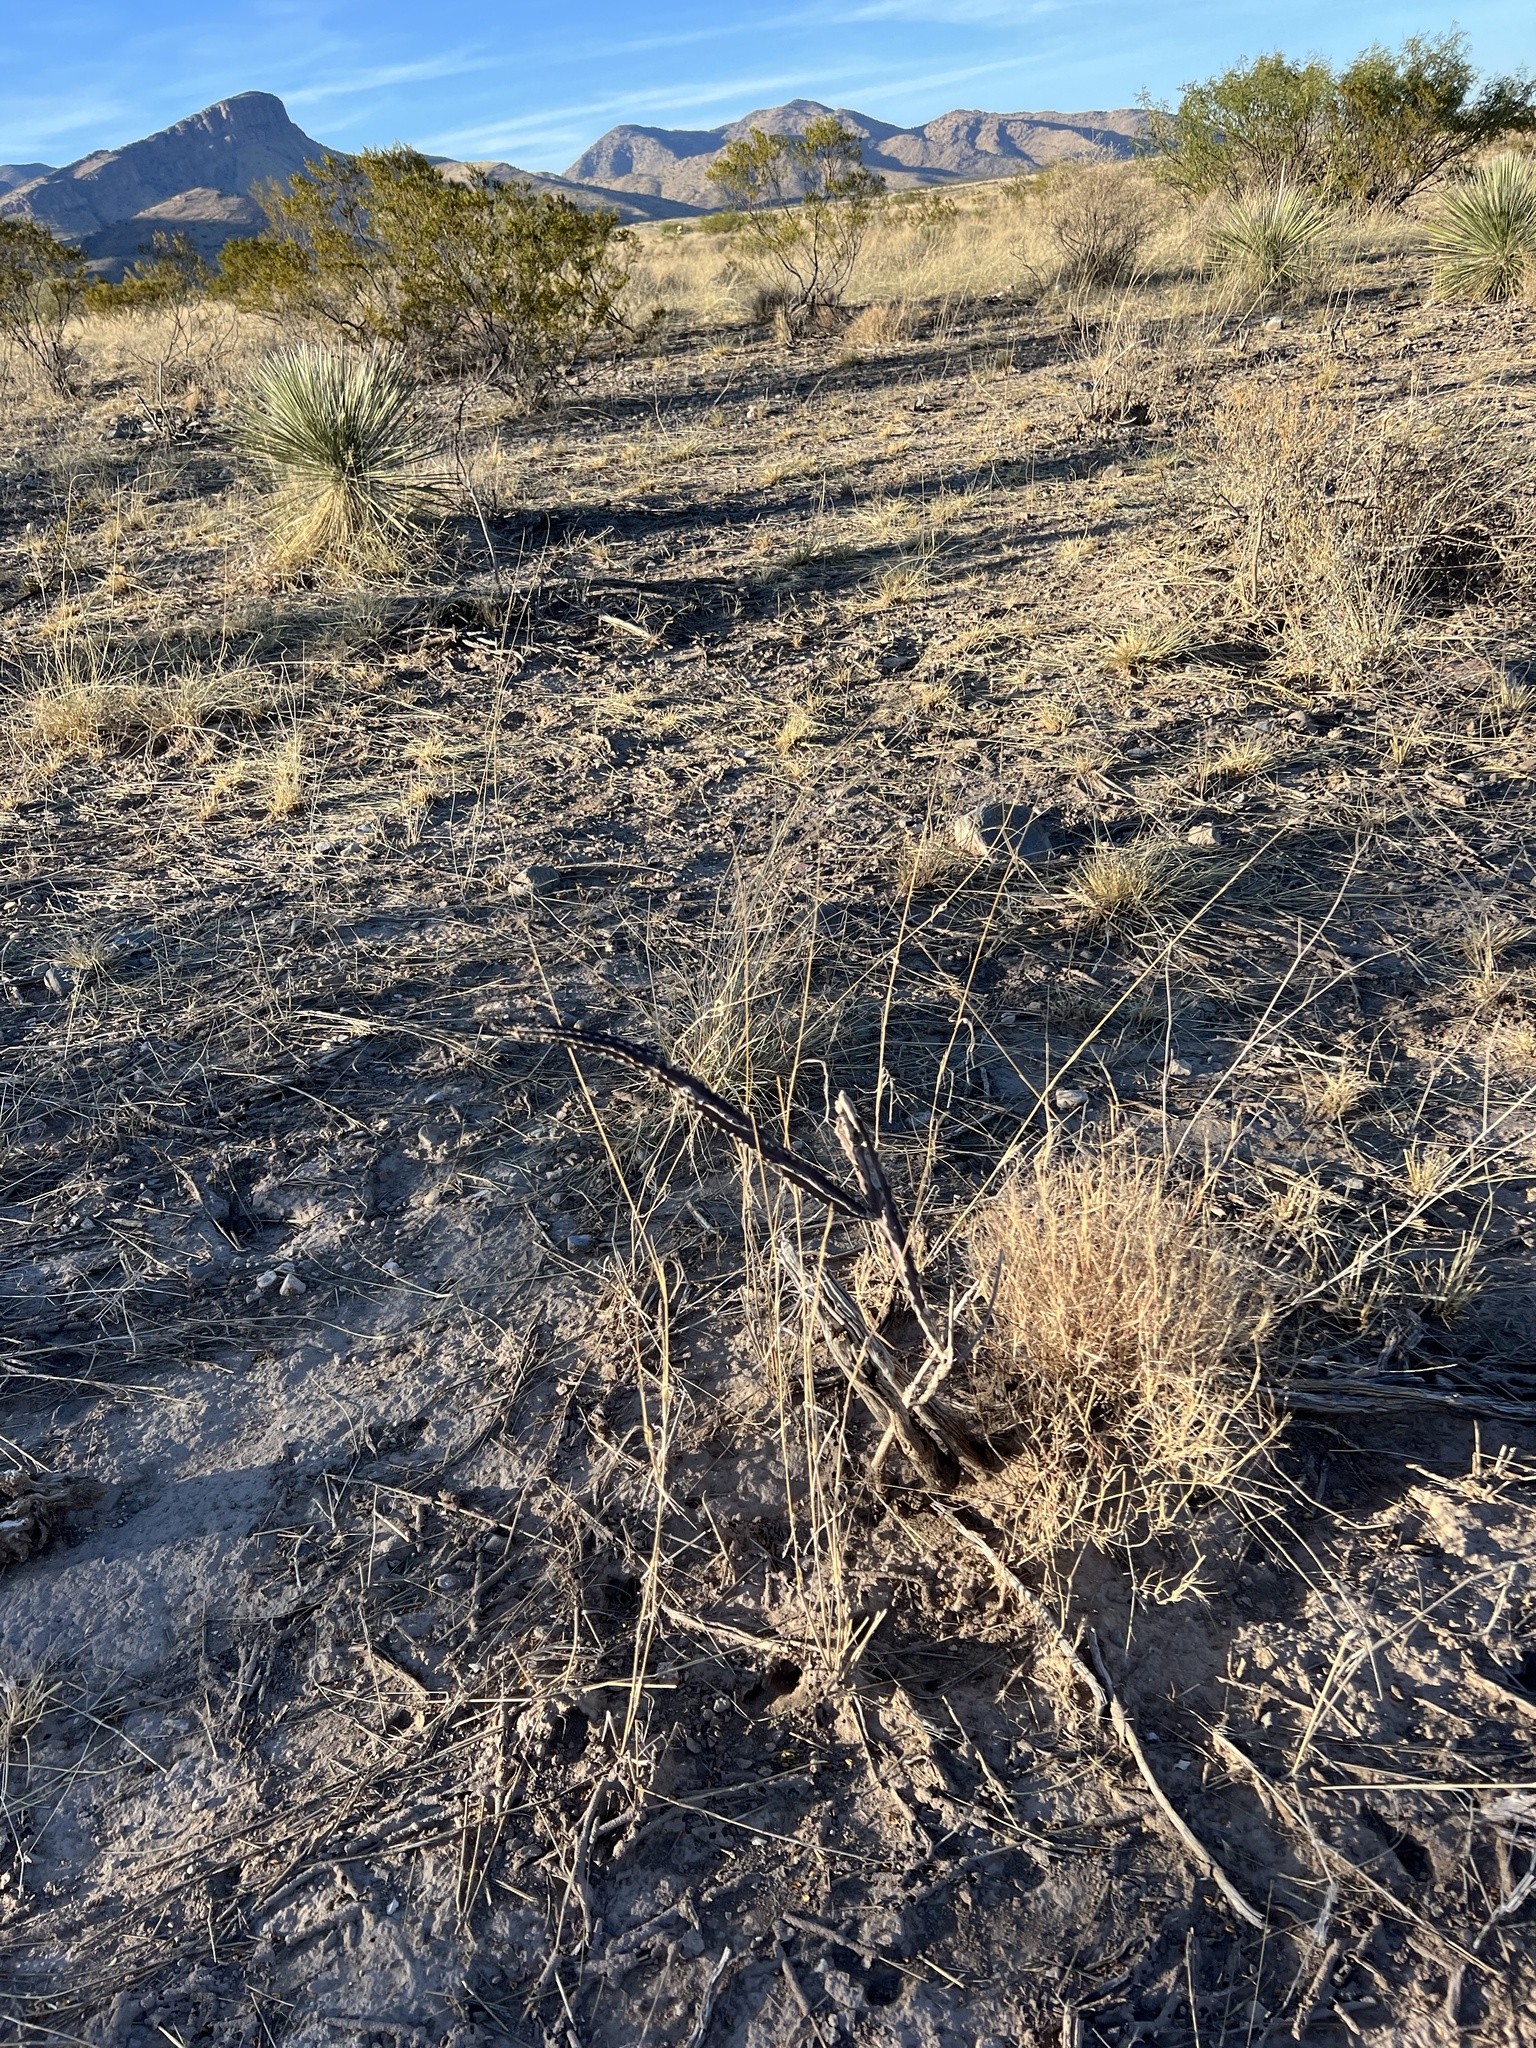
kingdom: Plantae
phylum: Tracheophyta
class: Magnoliopsida
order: Caryophyllales
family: Cactaceae
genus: Peniocereus
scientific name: Peniocereus greggii
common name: Desert night-blooming cereus
